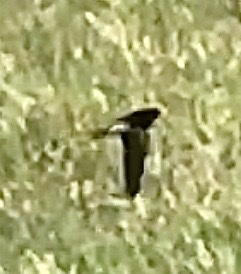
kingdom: Animalia
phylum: Chordata
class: Aves
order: Passeriformes
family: Hirundinidae
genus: Hirundo
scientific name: Hirundo rustica
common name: Barn swallow
